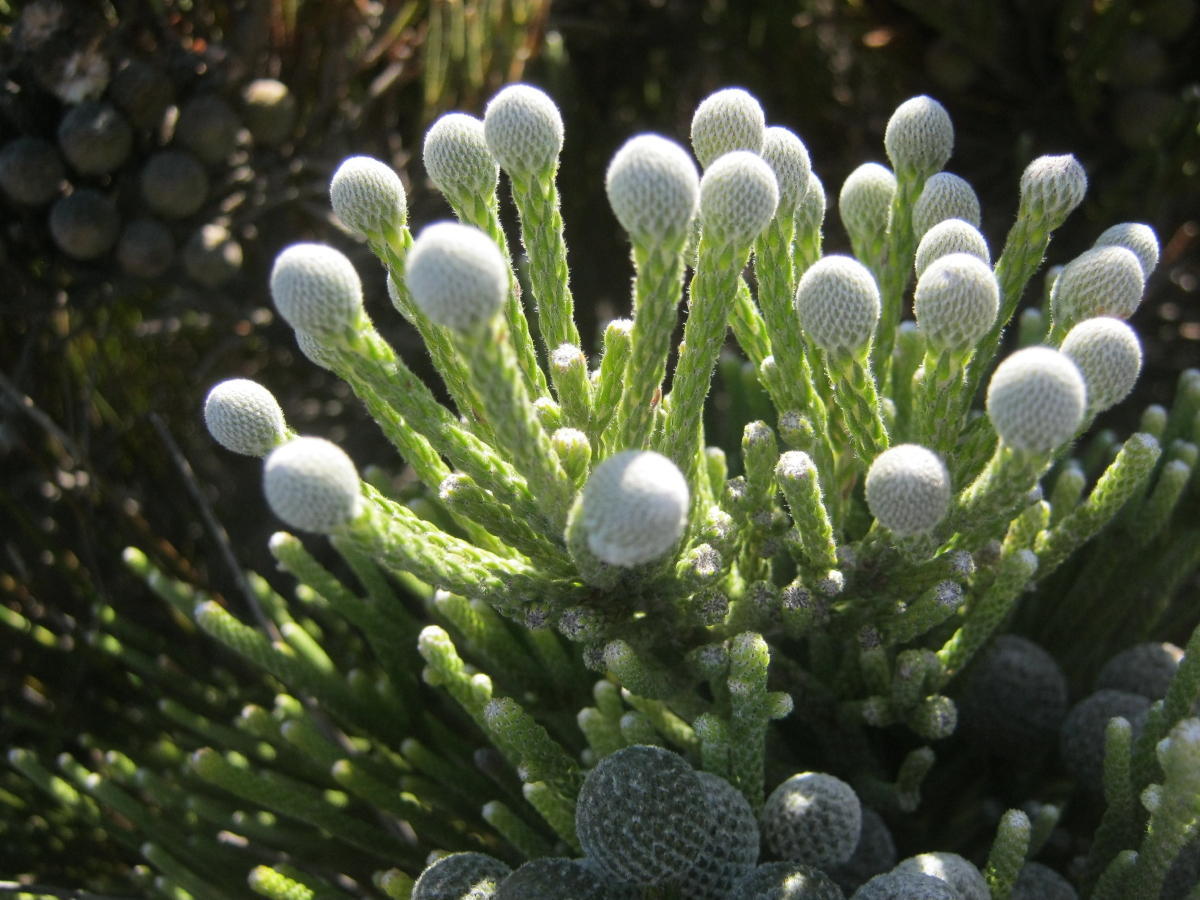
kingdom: Plantae
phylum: Tracheophyta
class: Magnoliopsida
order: Bruniales
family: Bruniaceae
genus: Brunia
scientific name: Brunia noduliflora
